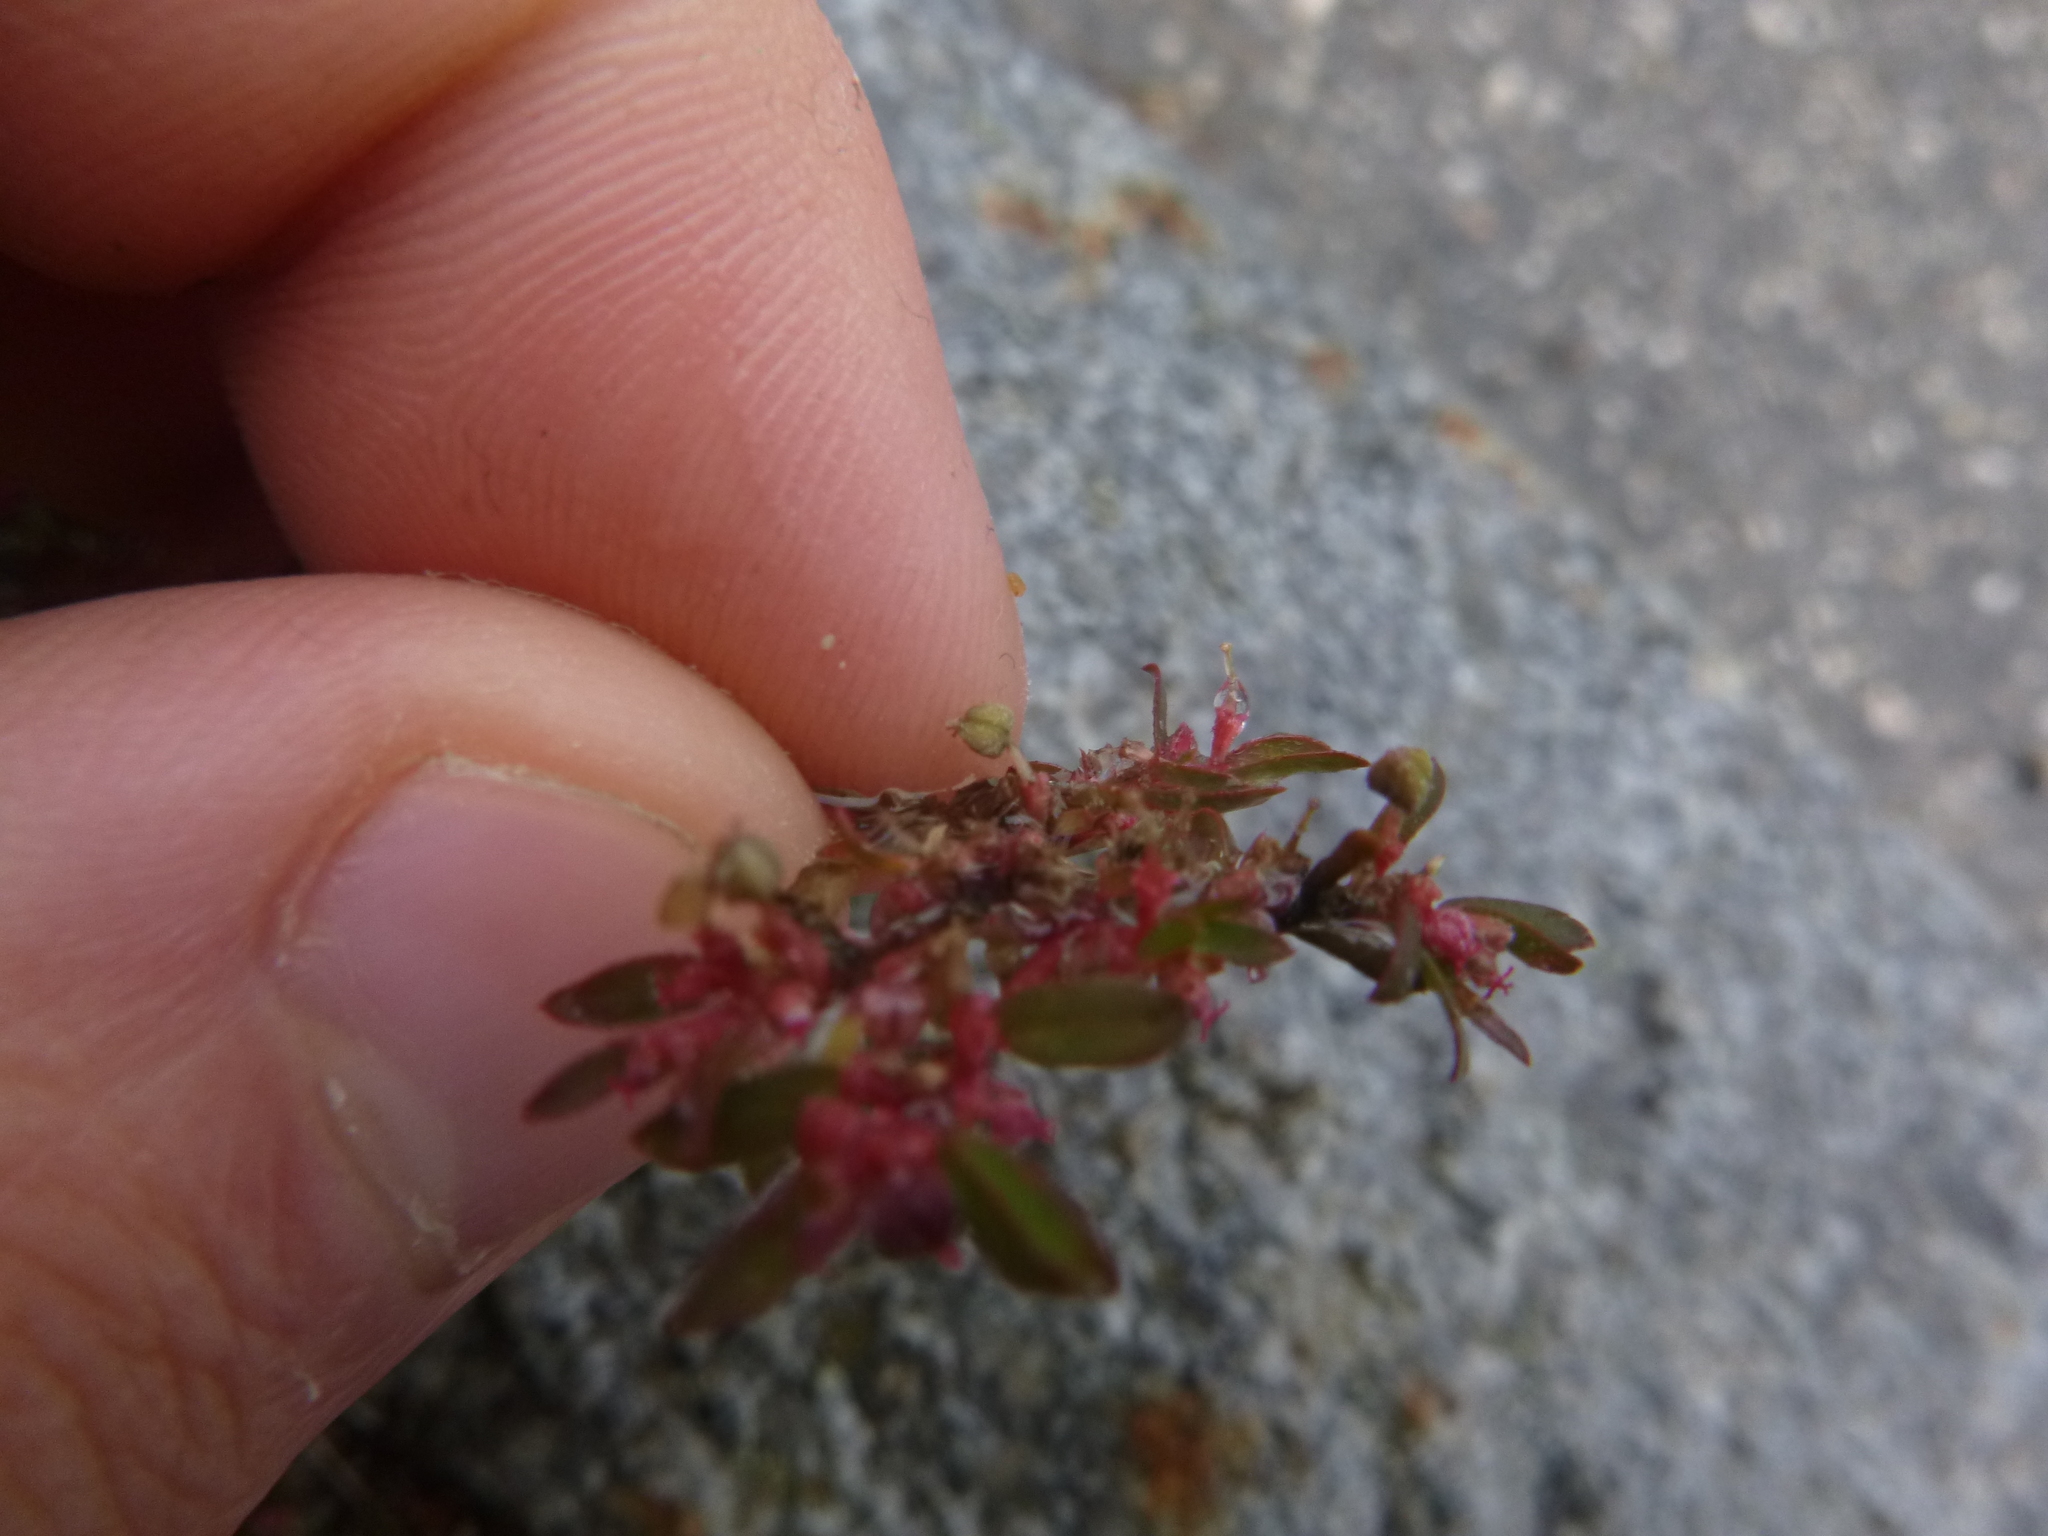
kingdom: Plantae
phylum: Tracheophyta
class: Magnoliopsida
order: Malpighiales
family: Euphorbiaceae
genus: Euphorbia
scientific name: Euphorbia maculata
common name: Spotted spurge
